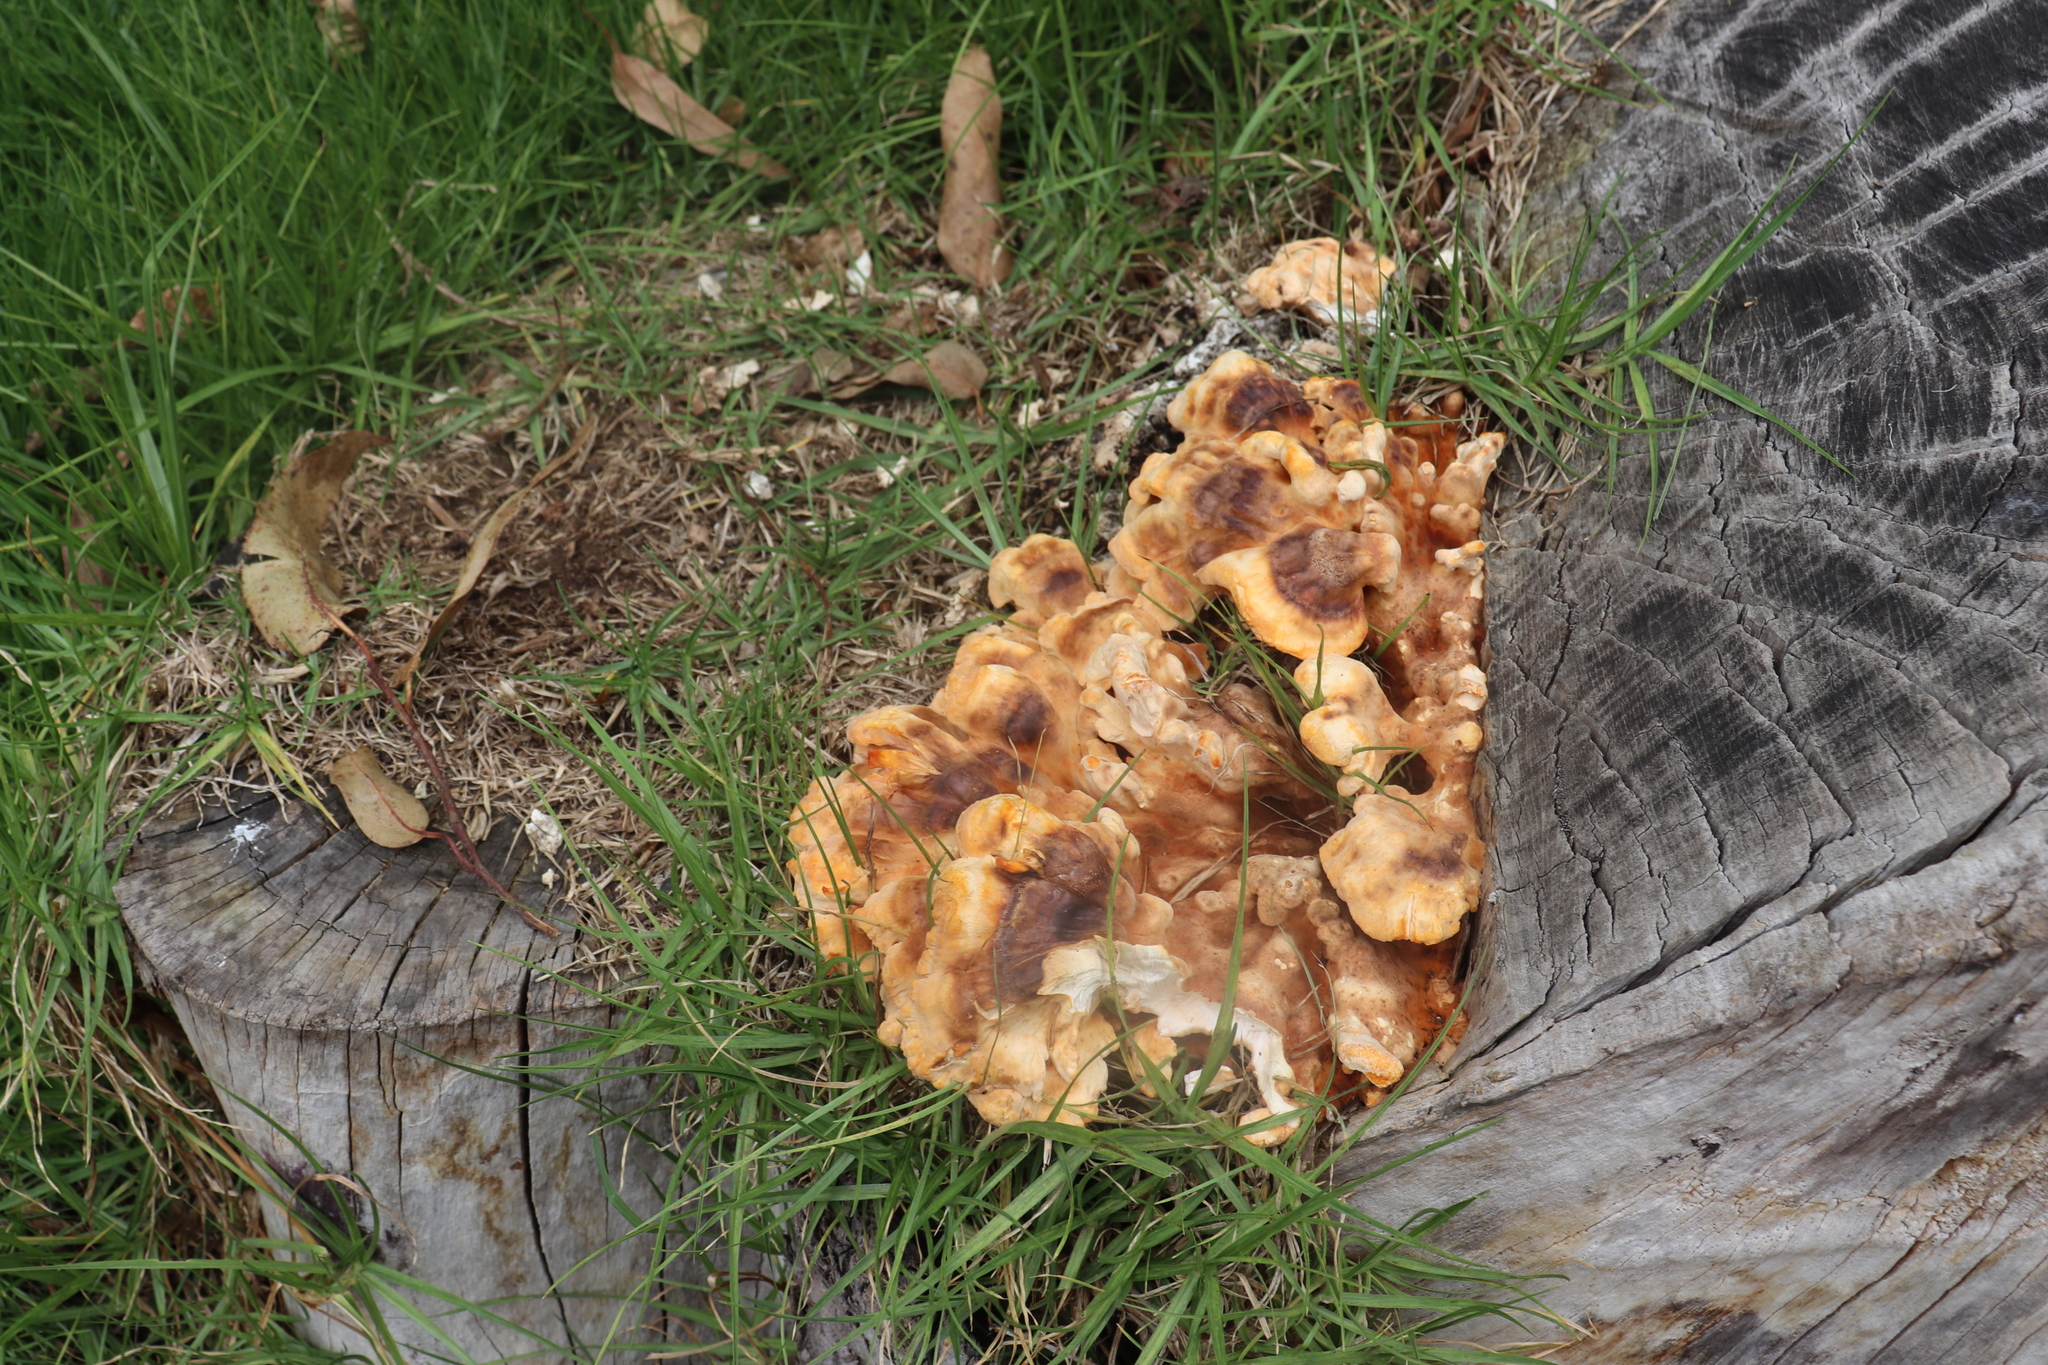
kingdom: Fungi
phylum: Basidiomycota
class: Agaricomycetes
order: Polyporales
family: Laetiporaceae
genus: Laetiporus
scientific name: Laetiporus sulphureus
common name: Chicken of the woods
